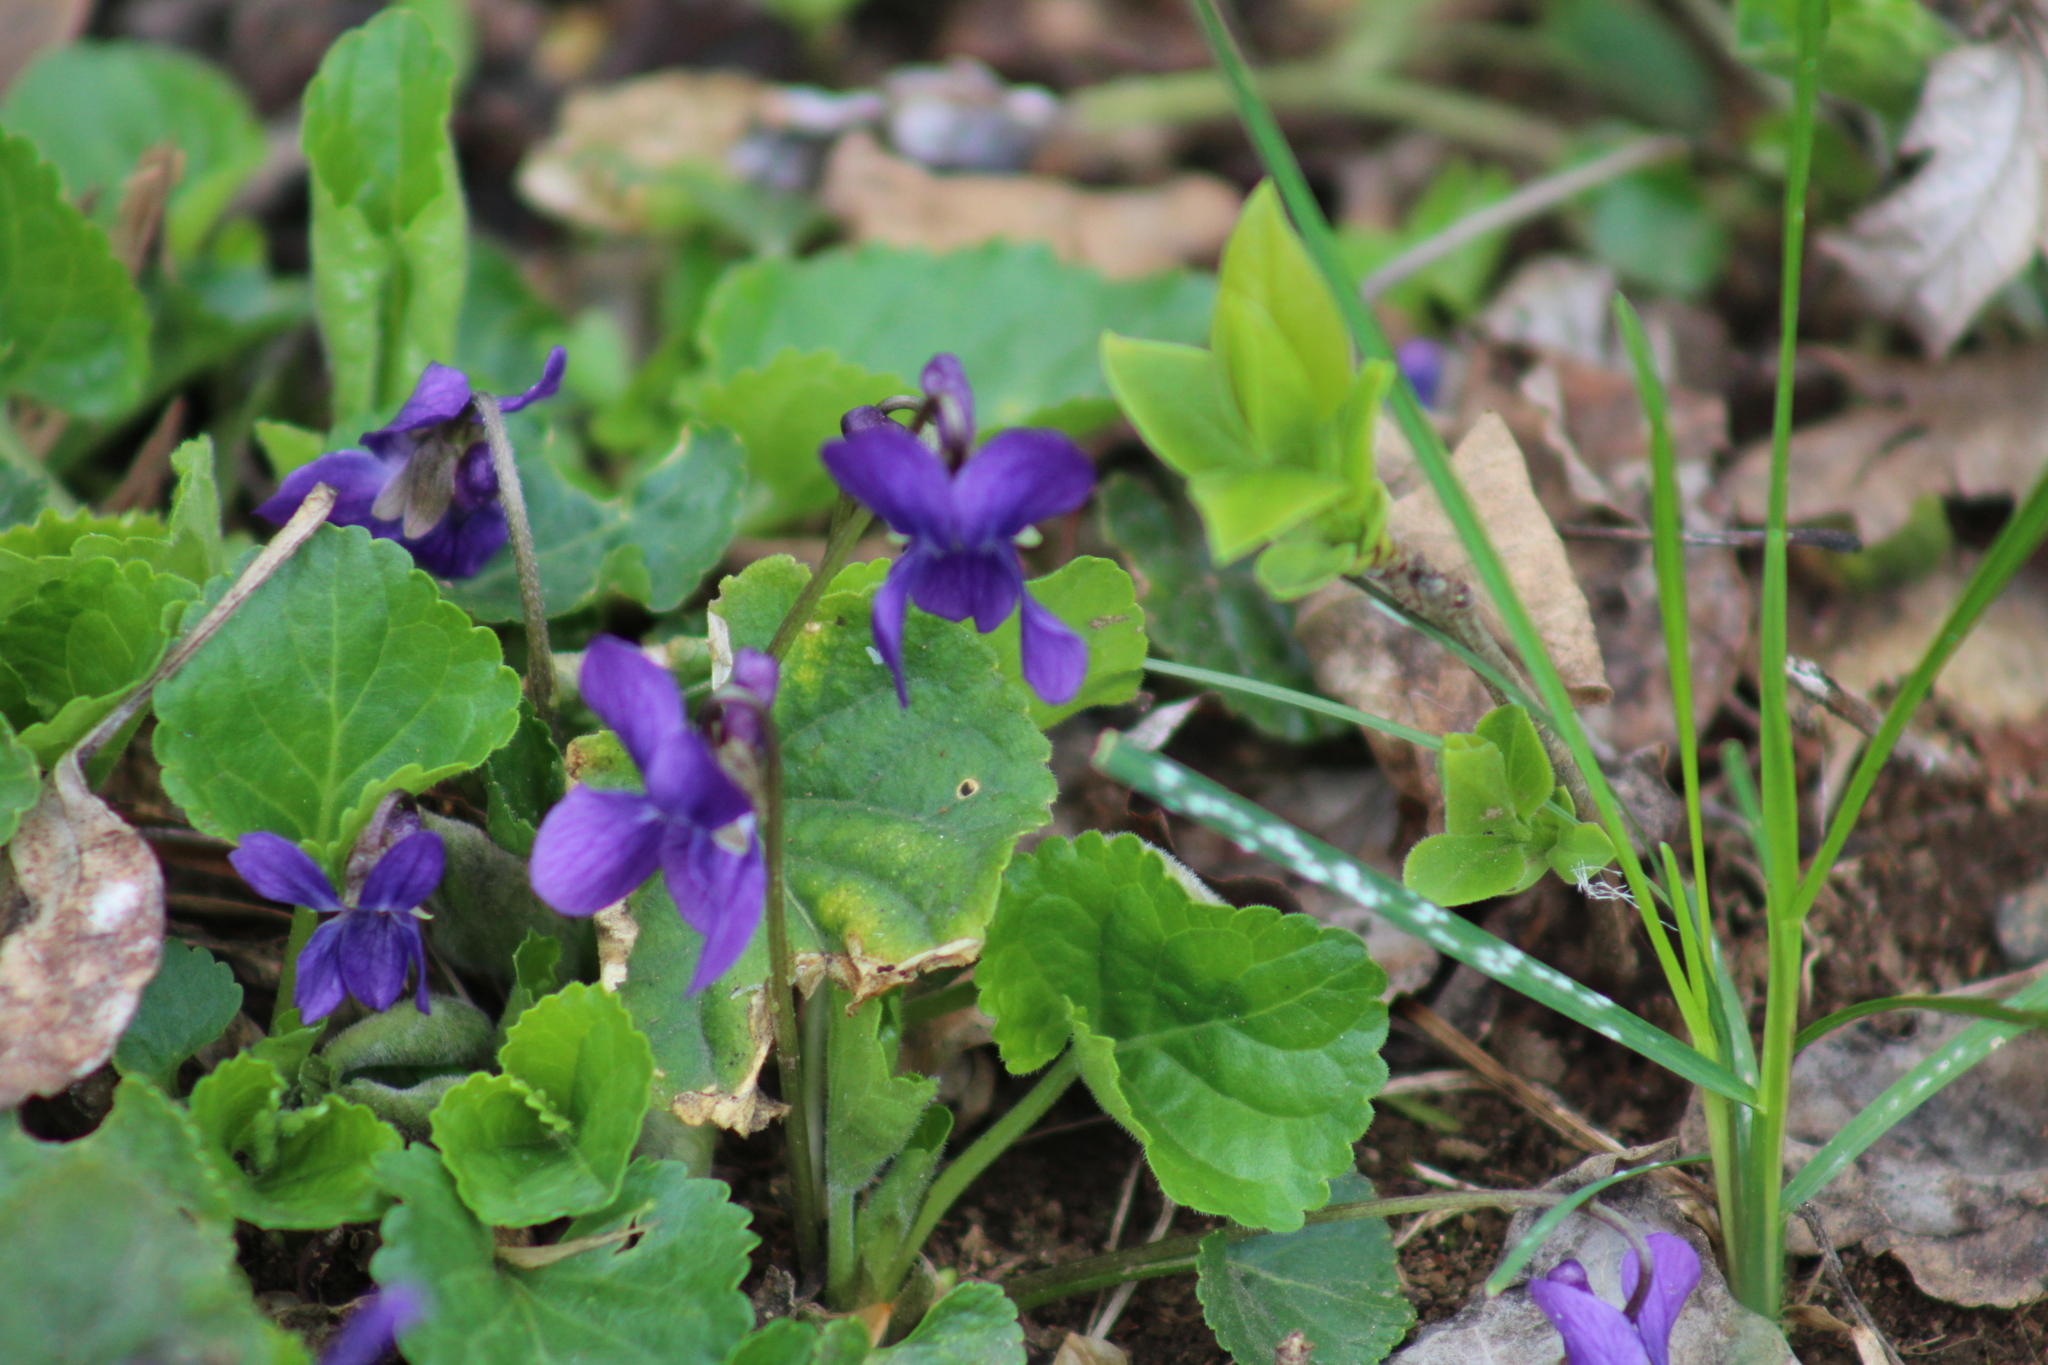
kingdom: Plantae
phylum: Tracheophyta
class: Magnoliopsida
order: Malpighiales
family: Violaceae
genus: Viola
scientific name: Viola odorata
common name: Sweet violet
